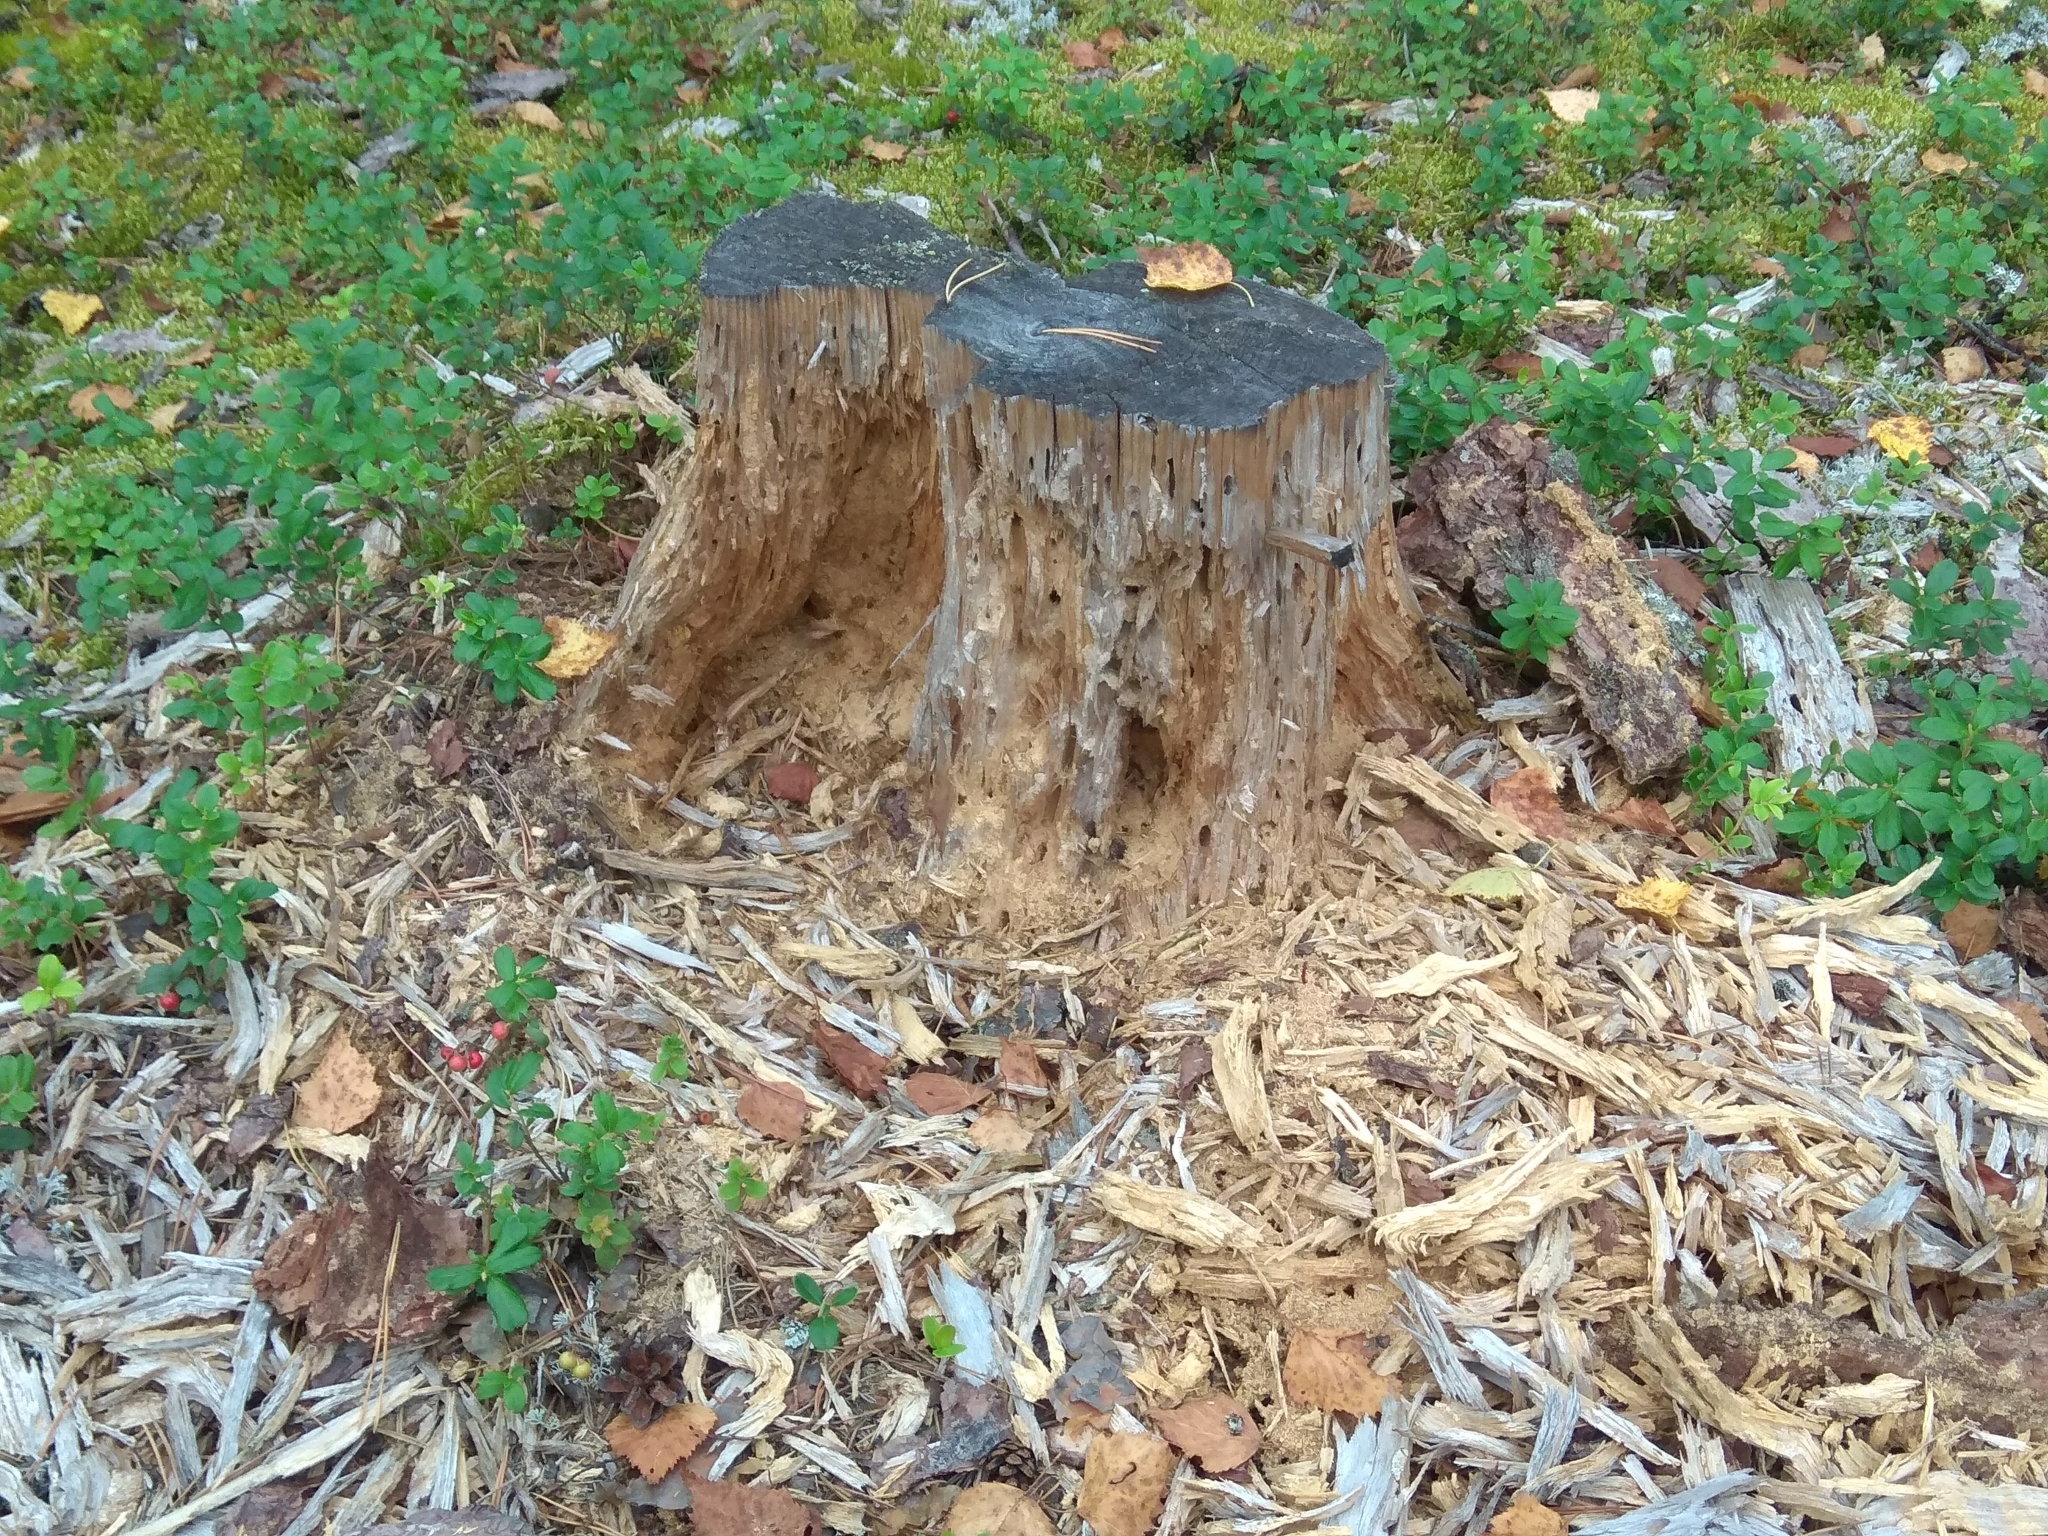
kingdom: Animalia
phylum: Chordata
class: Mammalia
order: Carnivora
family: Ursidae
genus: Ursus
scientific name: Ursus arctos
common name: Brown bear
